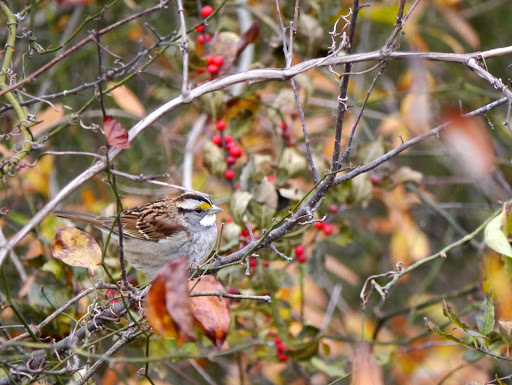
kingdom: Animalia
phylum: Chordata
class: Aves
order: Passeriformes
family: Passerellidae
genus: Zonotrichia
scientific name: Zonotrichia albicollis
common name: White-throated sparrow
